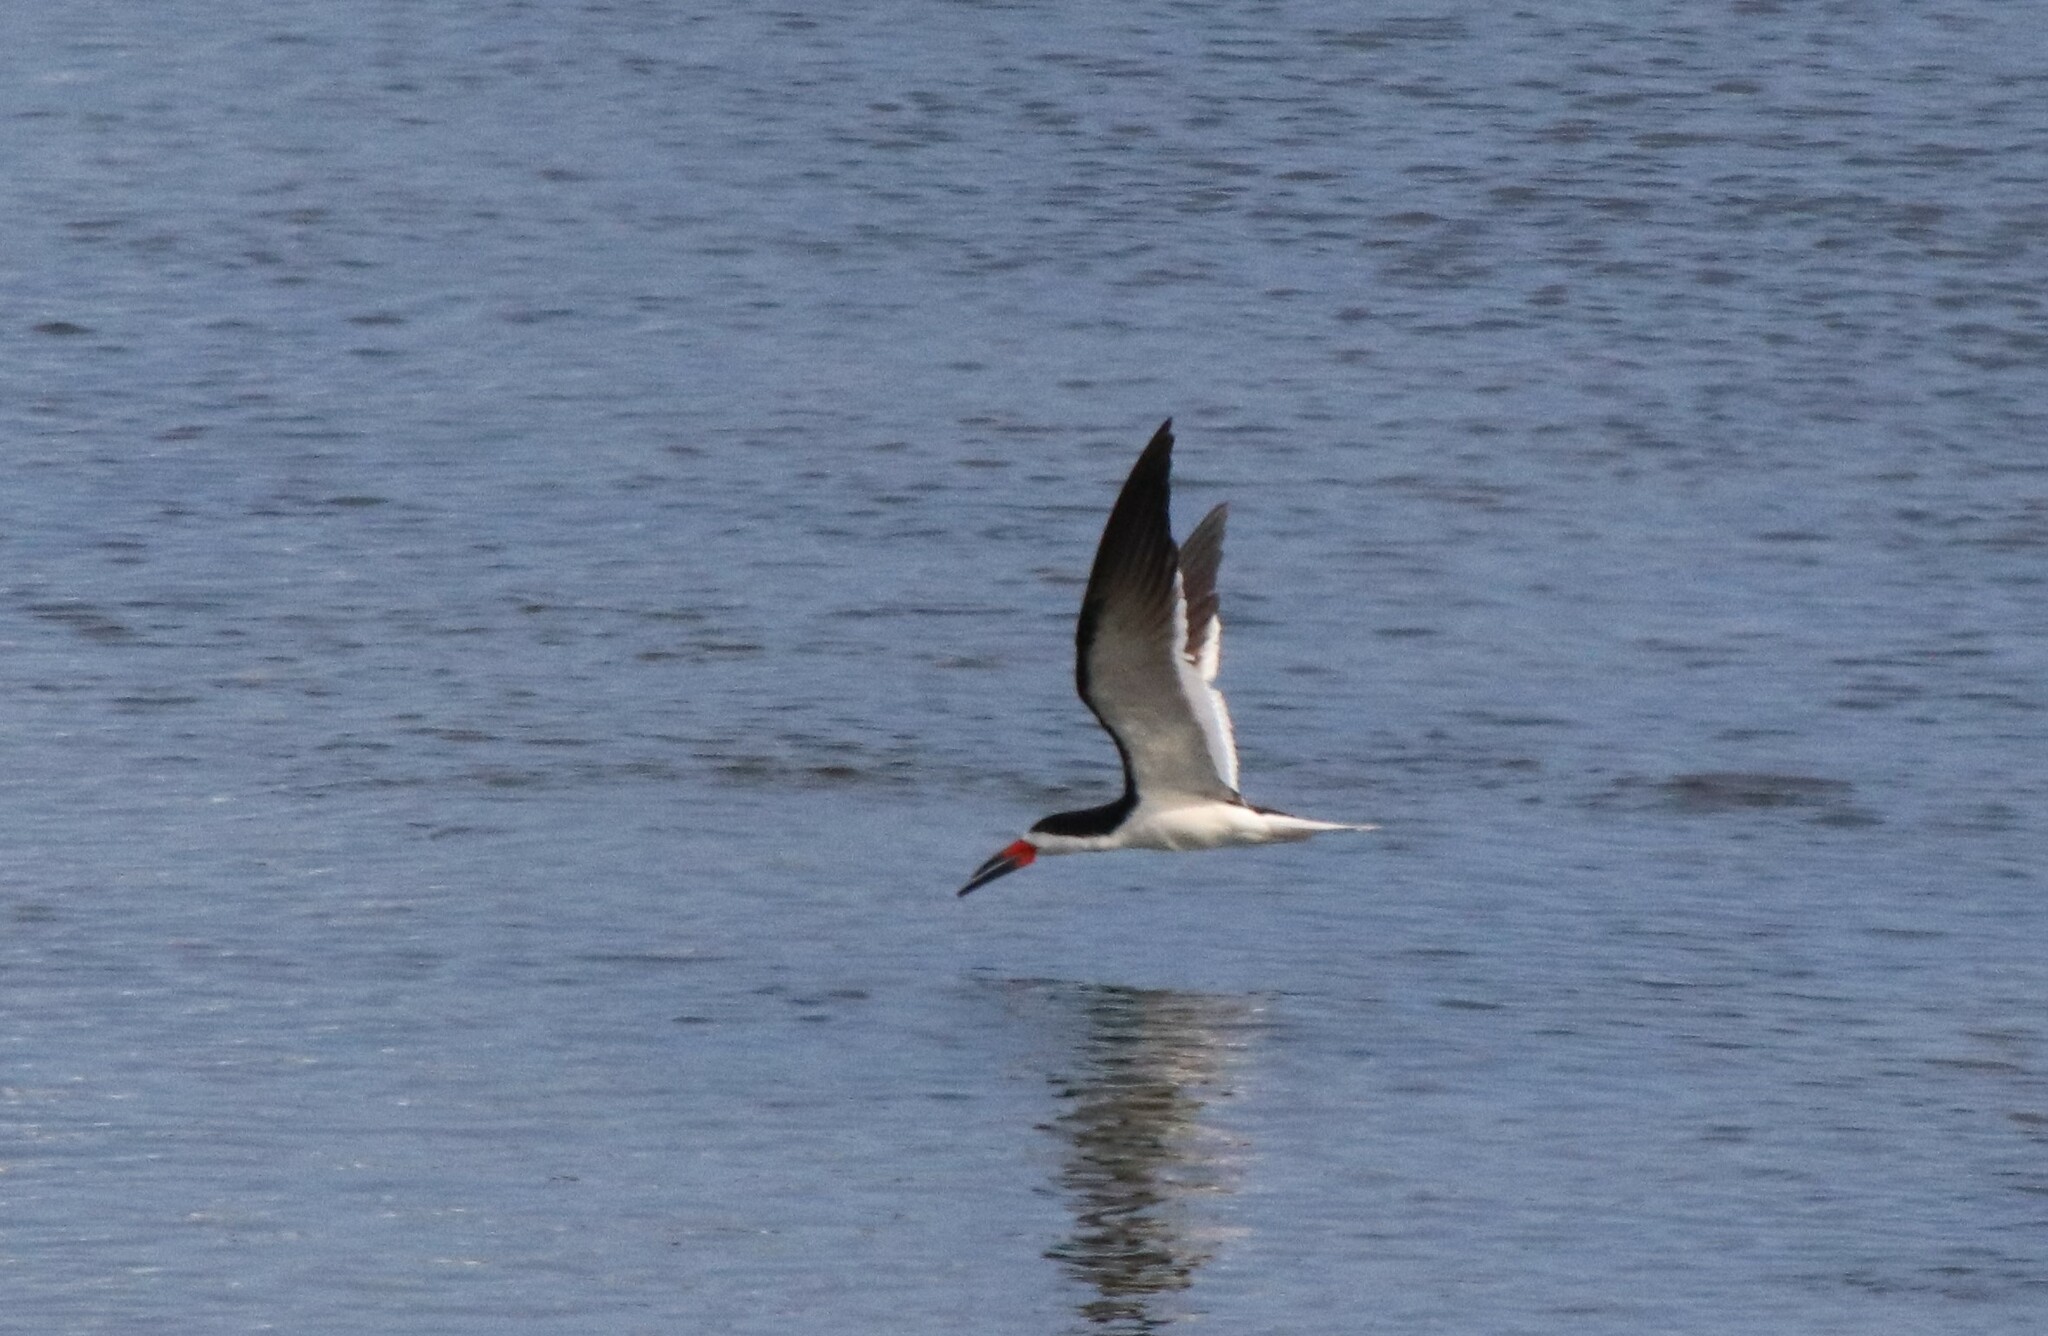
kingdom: Animalia
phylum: Chordata
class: Aves
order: Charadriiformes
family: Laridae
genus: Rynchops
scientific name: Rynchops niger
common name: Black skimmer
